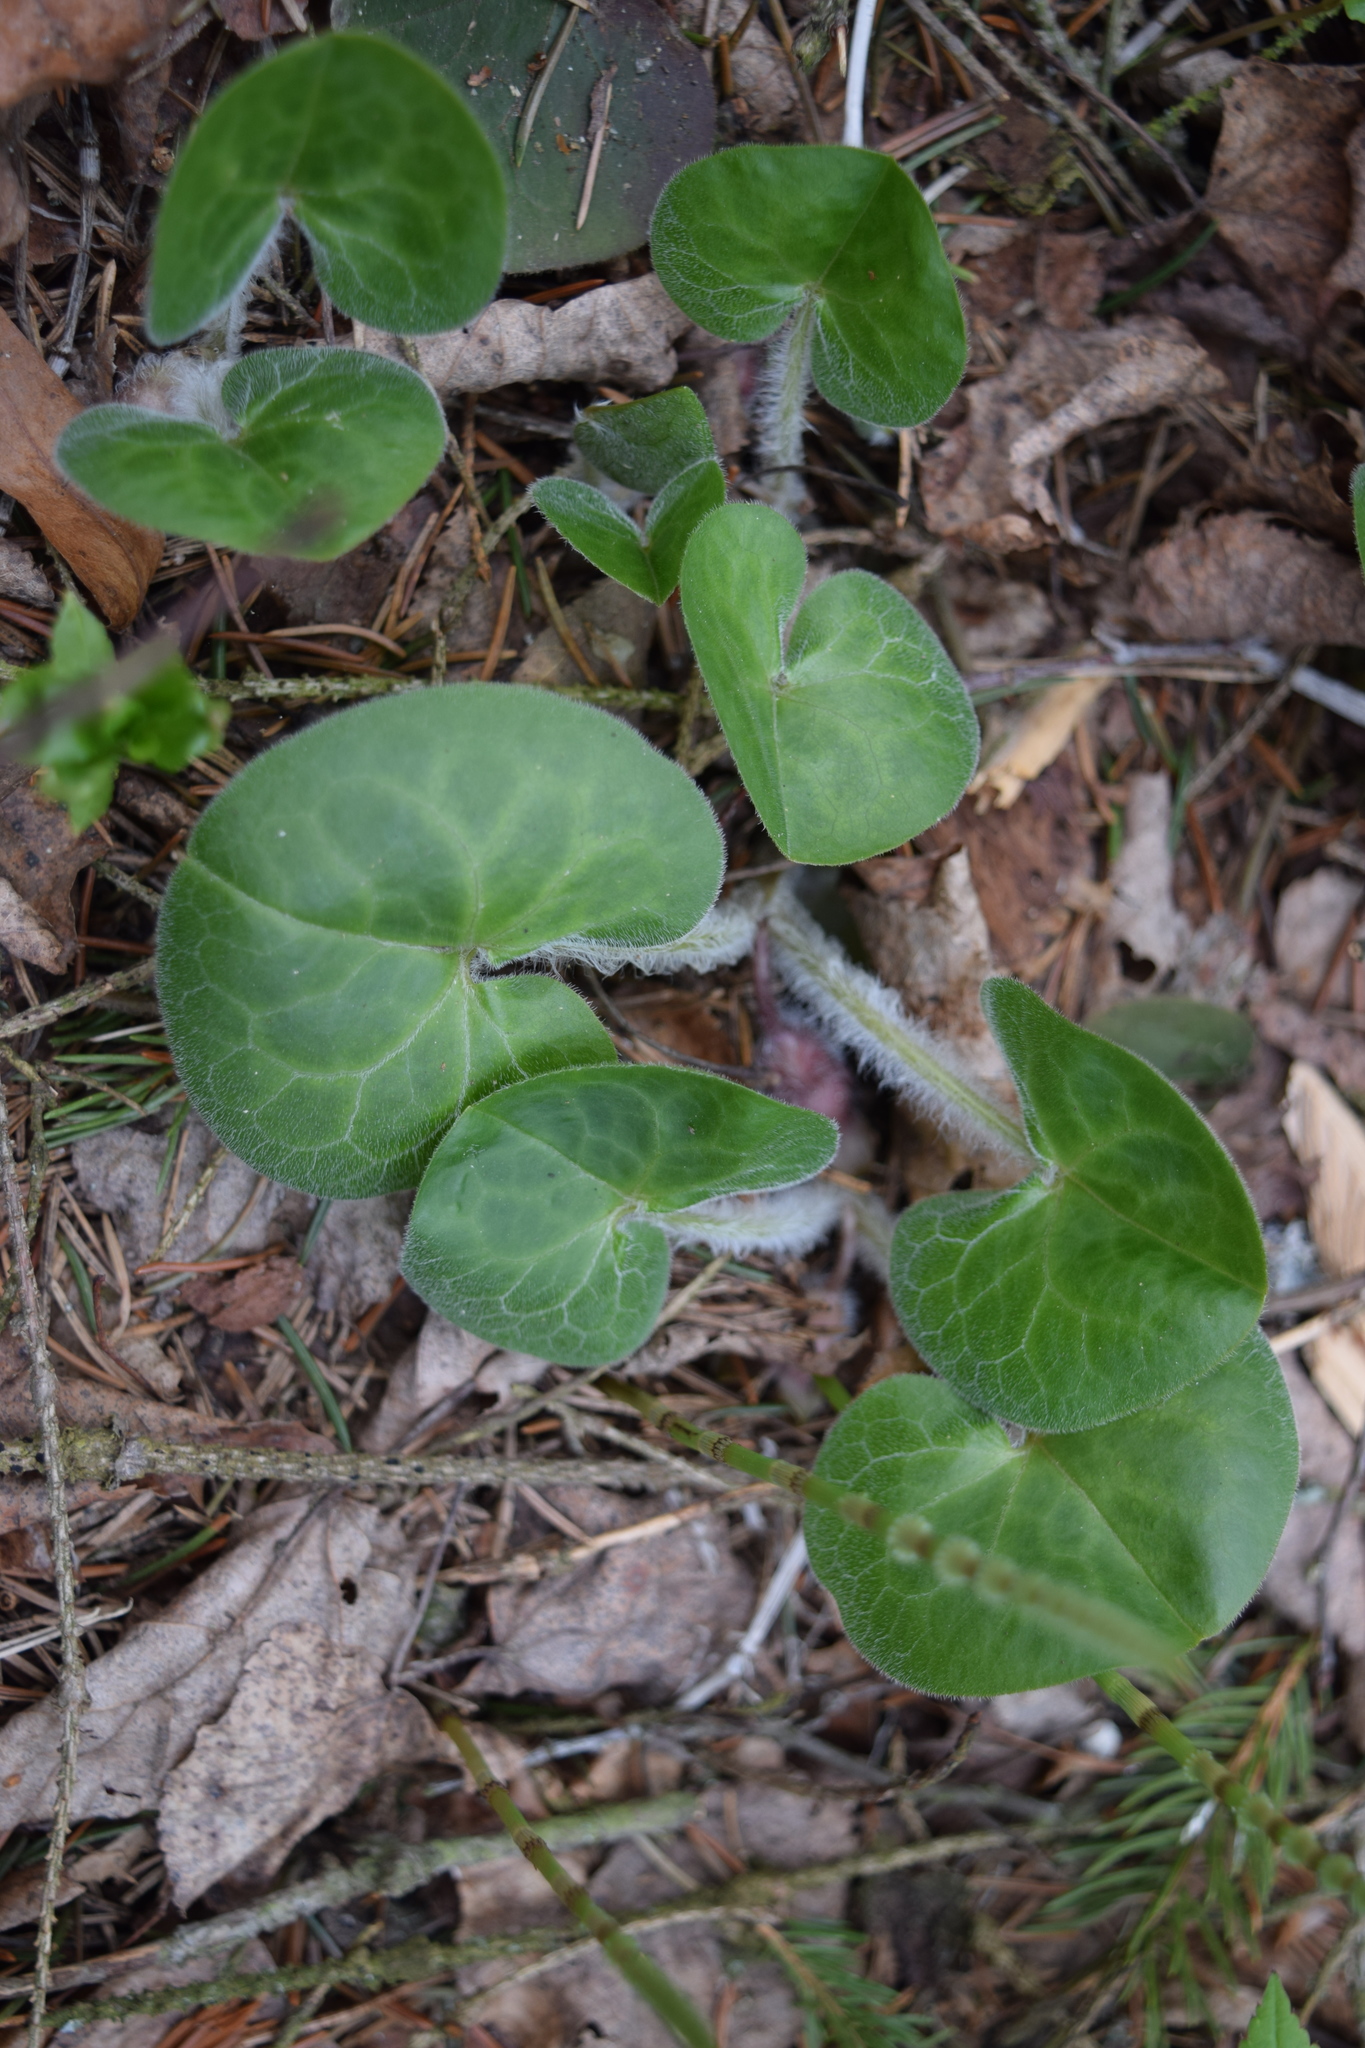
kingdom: Plantae
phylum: Tracheophyta
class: Magnoliopsida
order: Piperales
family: Aristolochiaceae
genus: Asarum
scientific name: Asarum europaeum
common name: Asarabacca
